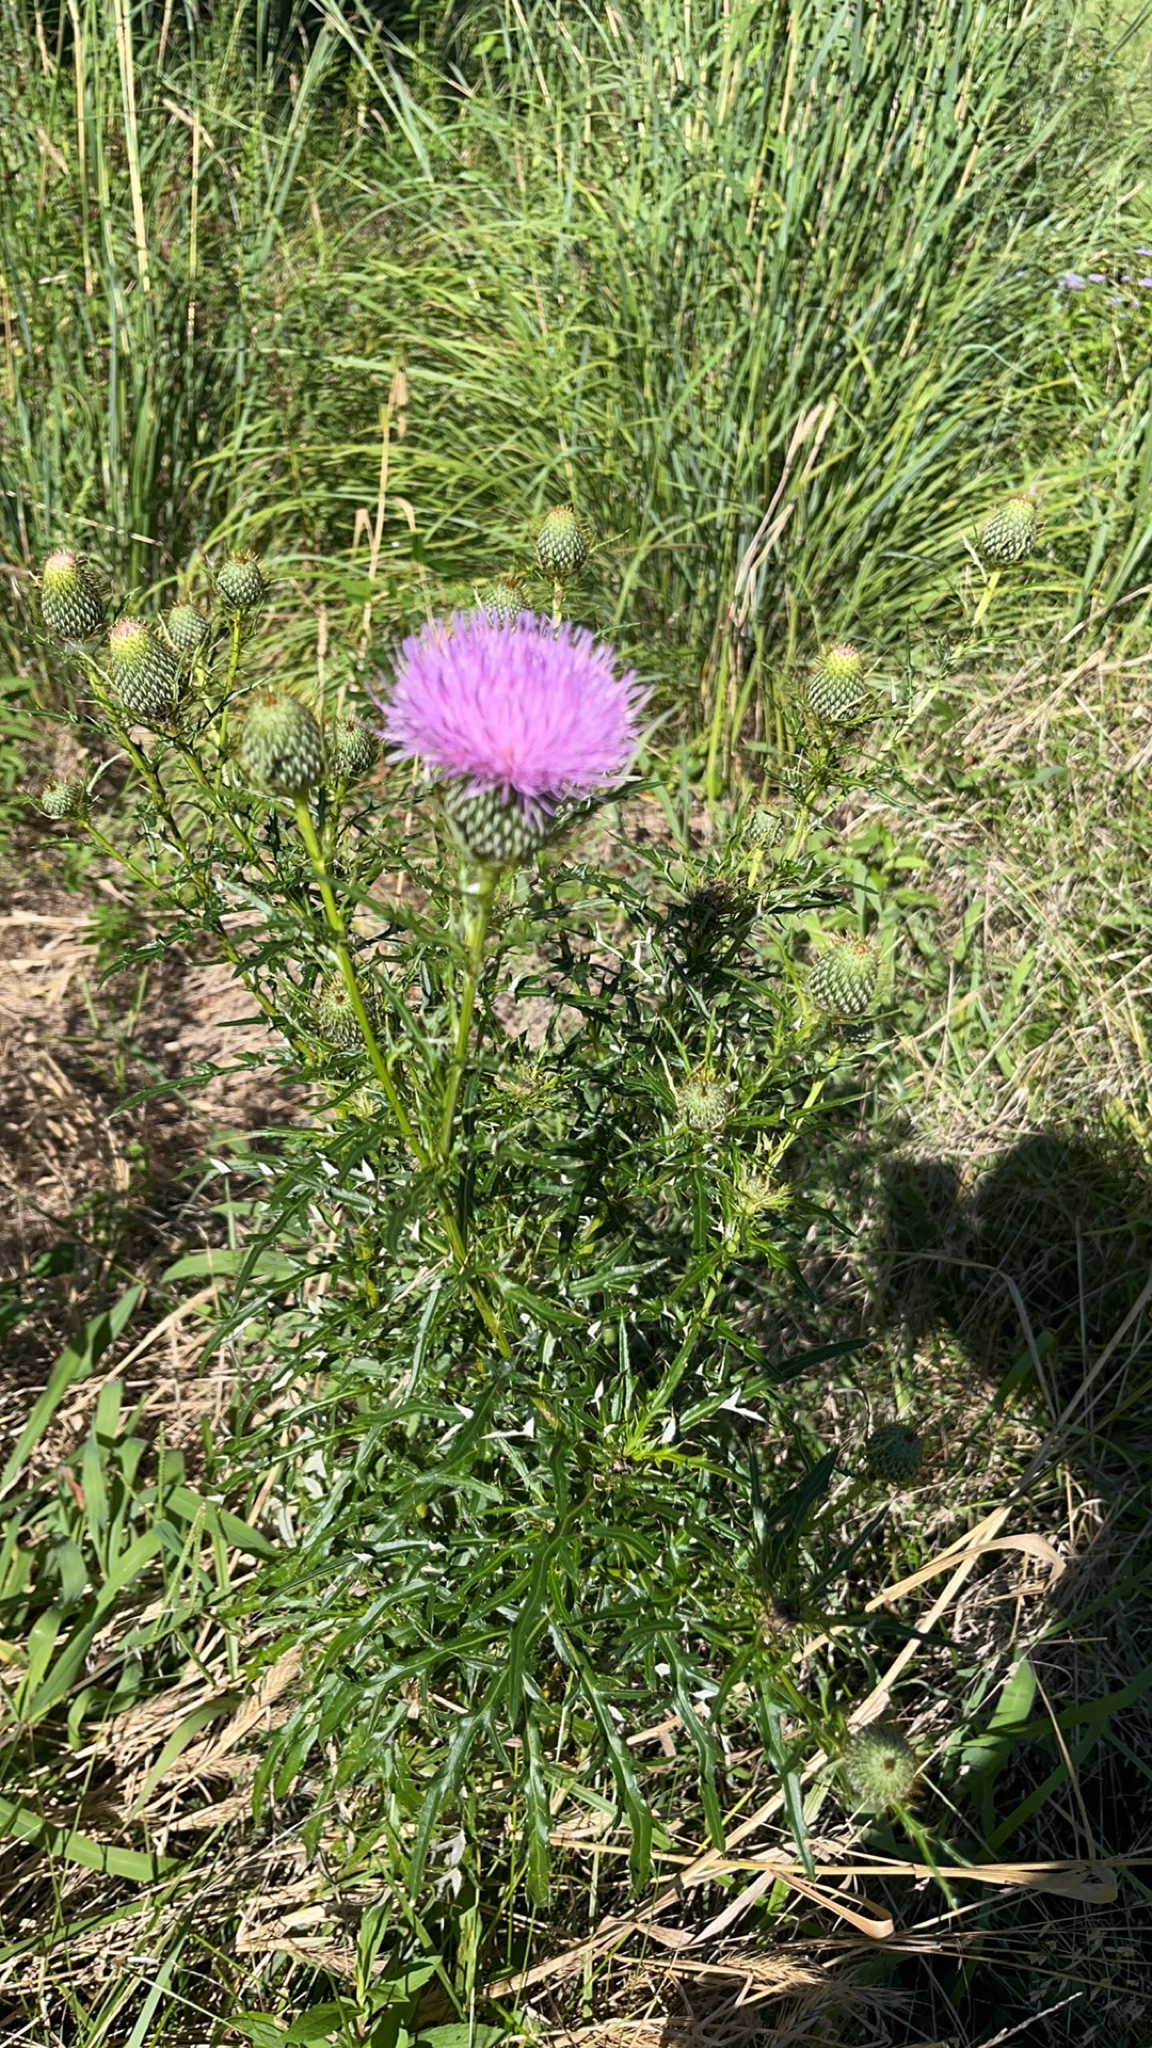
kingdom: Plantae
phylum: Tracheophyta
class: Magnoliopsida
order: Asterales
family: Asteraceae
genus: Cirsium
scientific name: Cirsium discolor
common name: Field thistle
